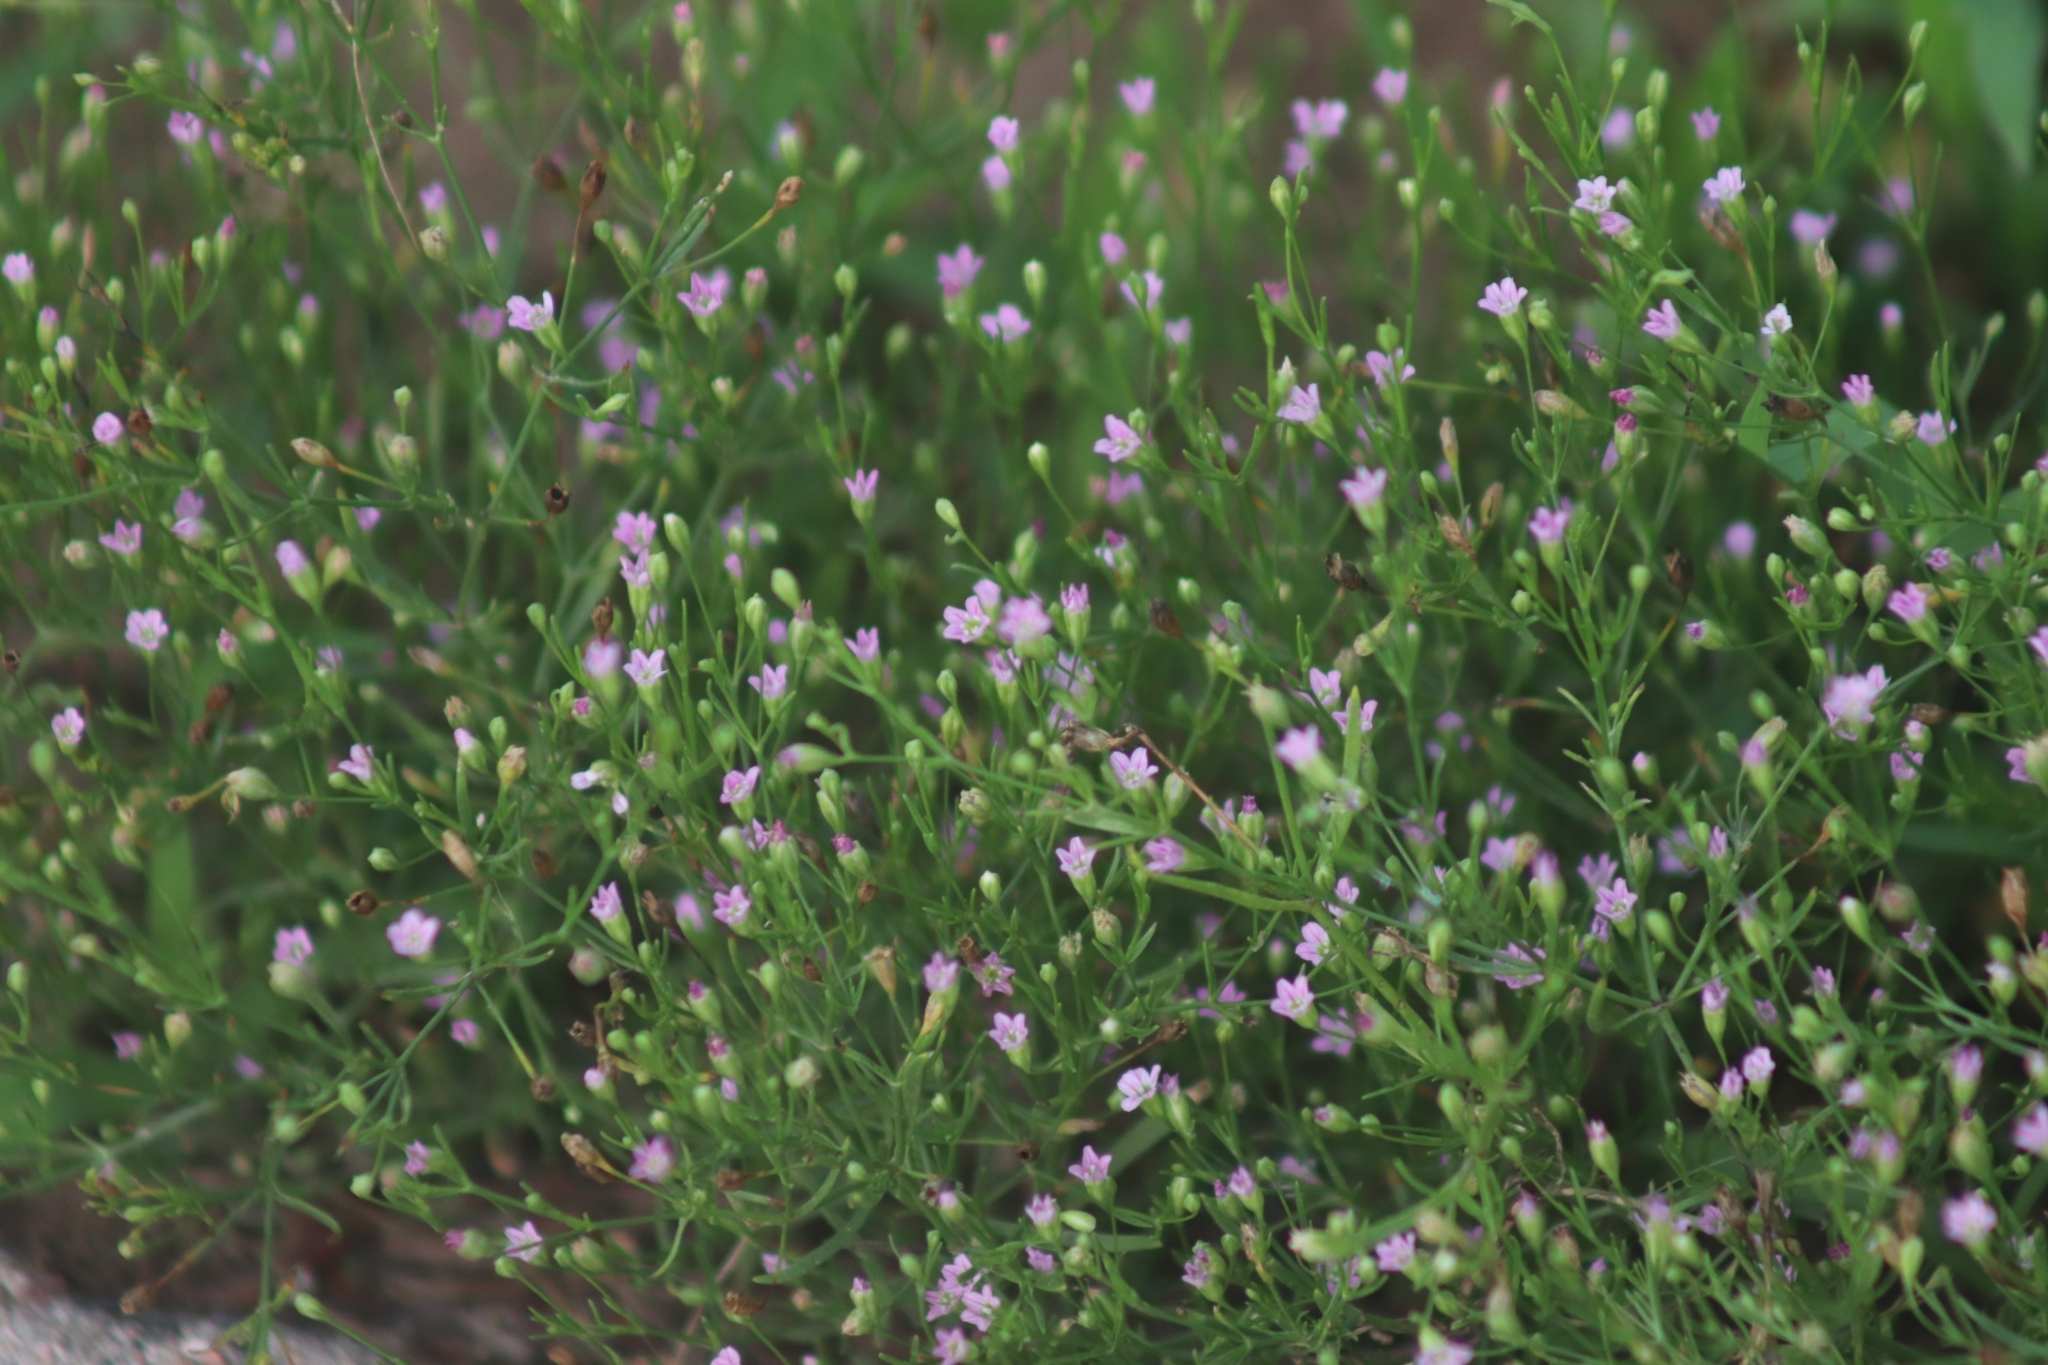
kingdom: Plantae
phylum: Tracheophyta
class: Magnoliopsida
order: Caryophyllales
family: Caryophyllaceae
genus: Psammophiliella
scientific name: Psammophiliella muralis
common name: Cushion baby's-breath
